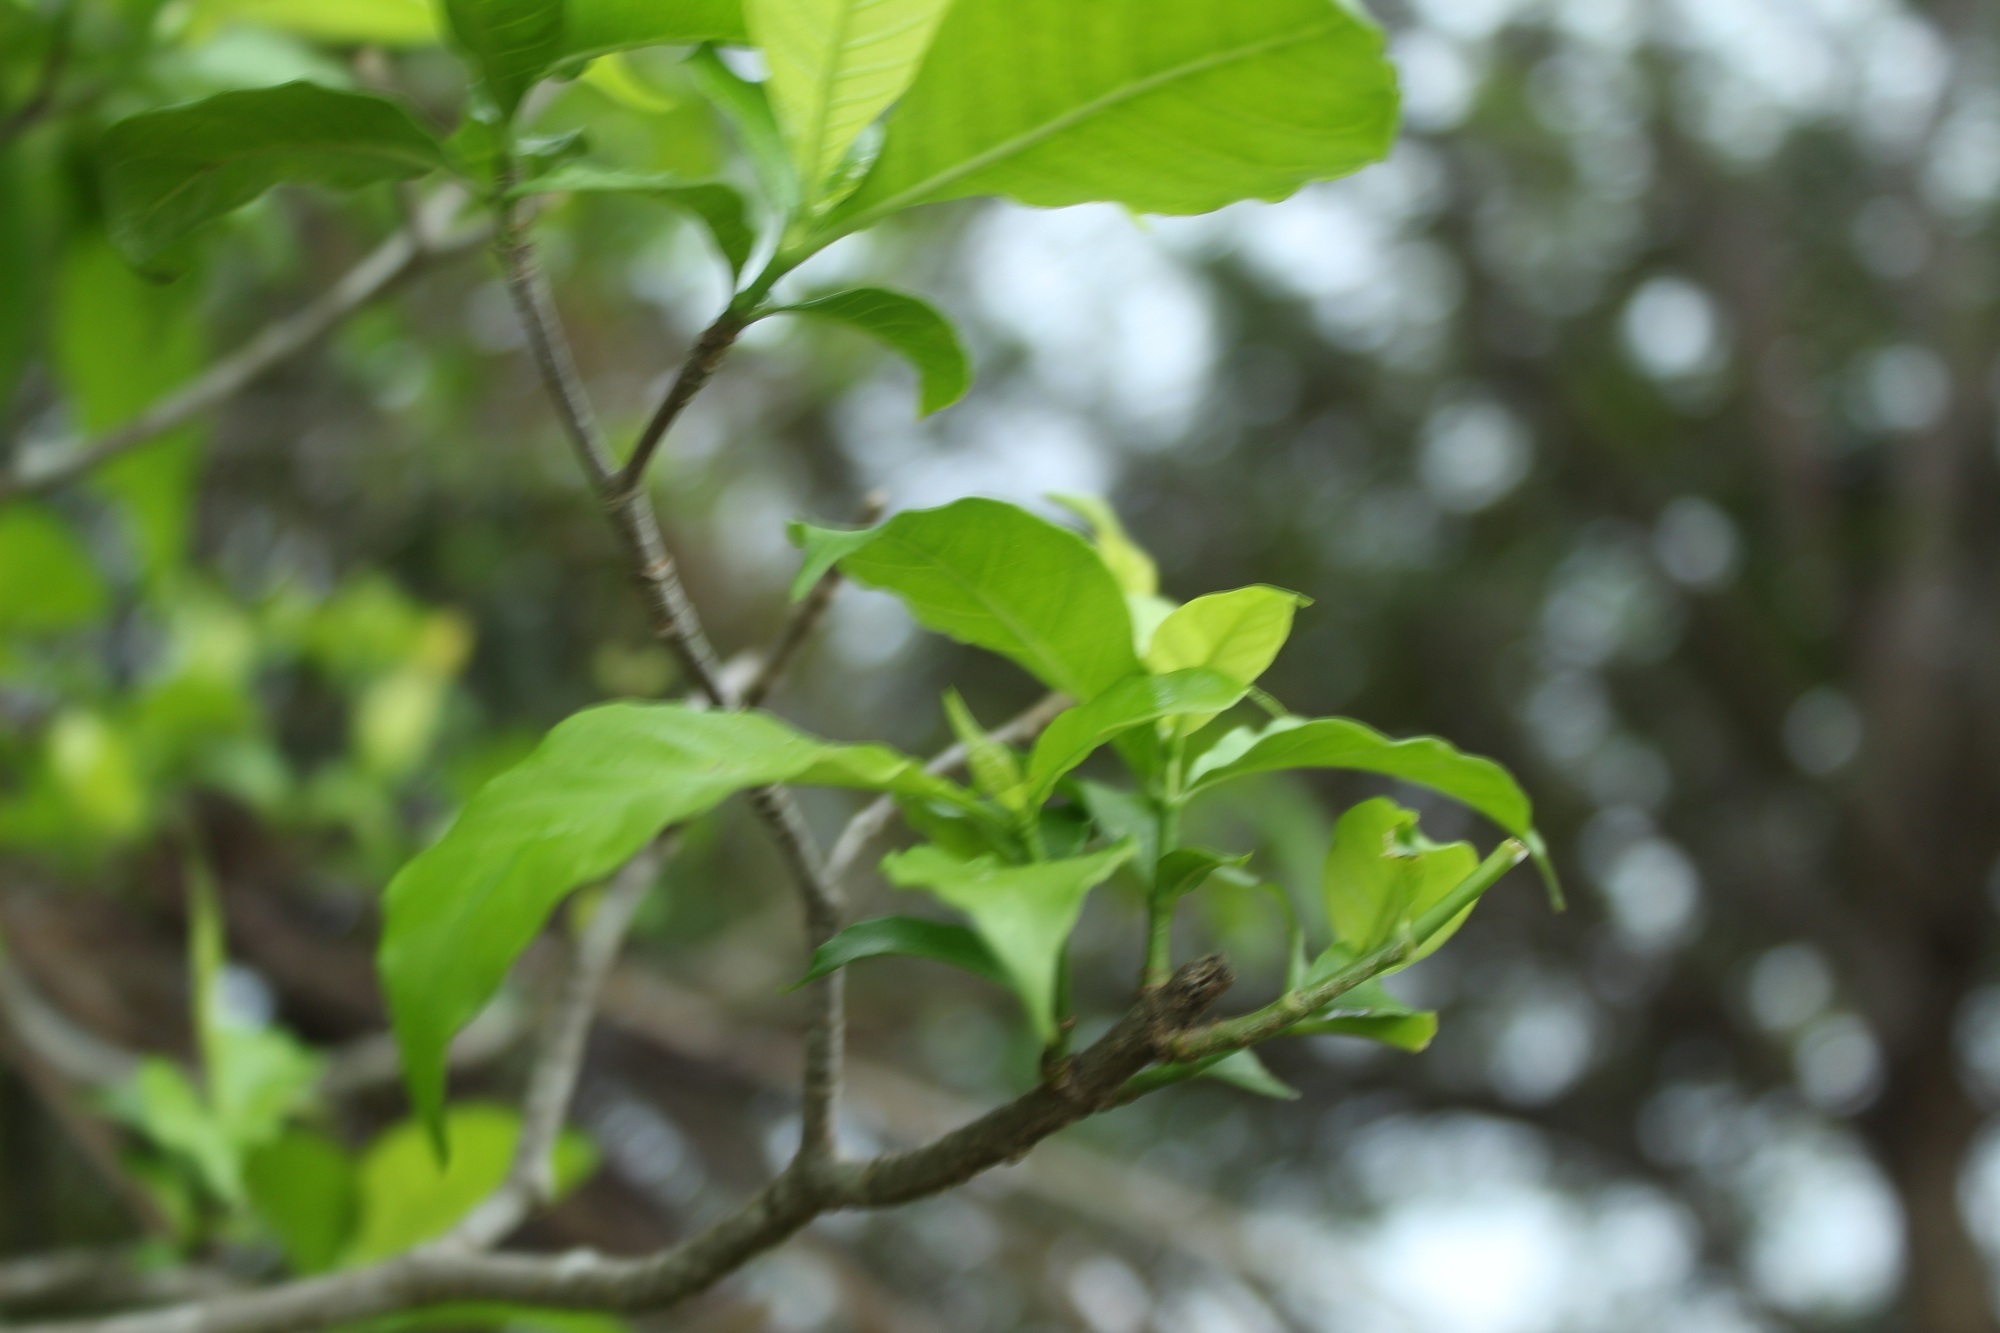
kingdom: Plantae
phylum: Tracheophyta
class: Magnoliopsida
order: Gentianales
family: Apocynaceae
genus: Tabernaemontana
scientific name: Tabernaemontana grandiflora
